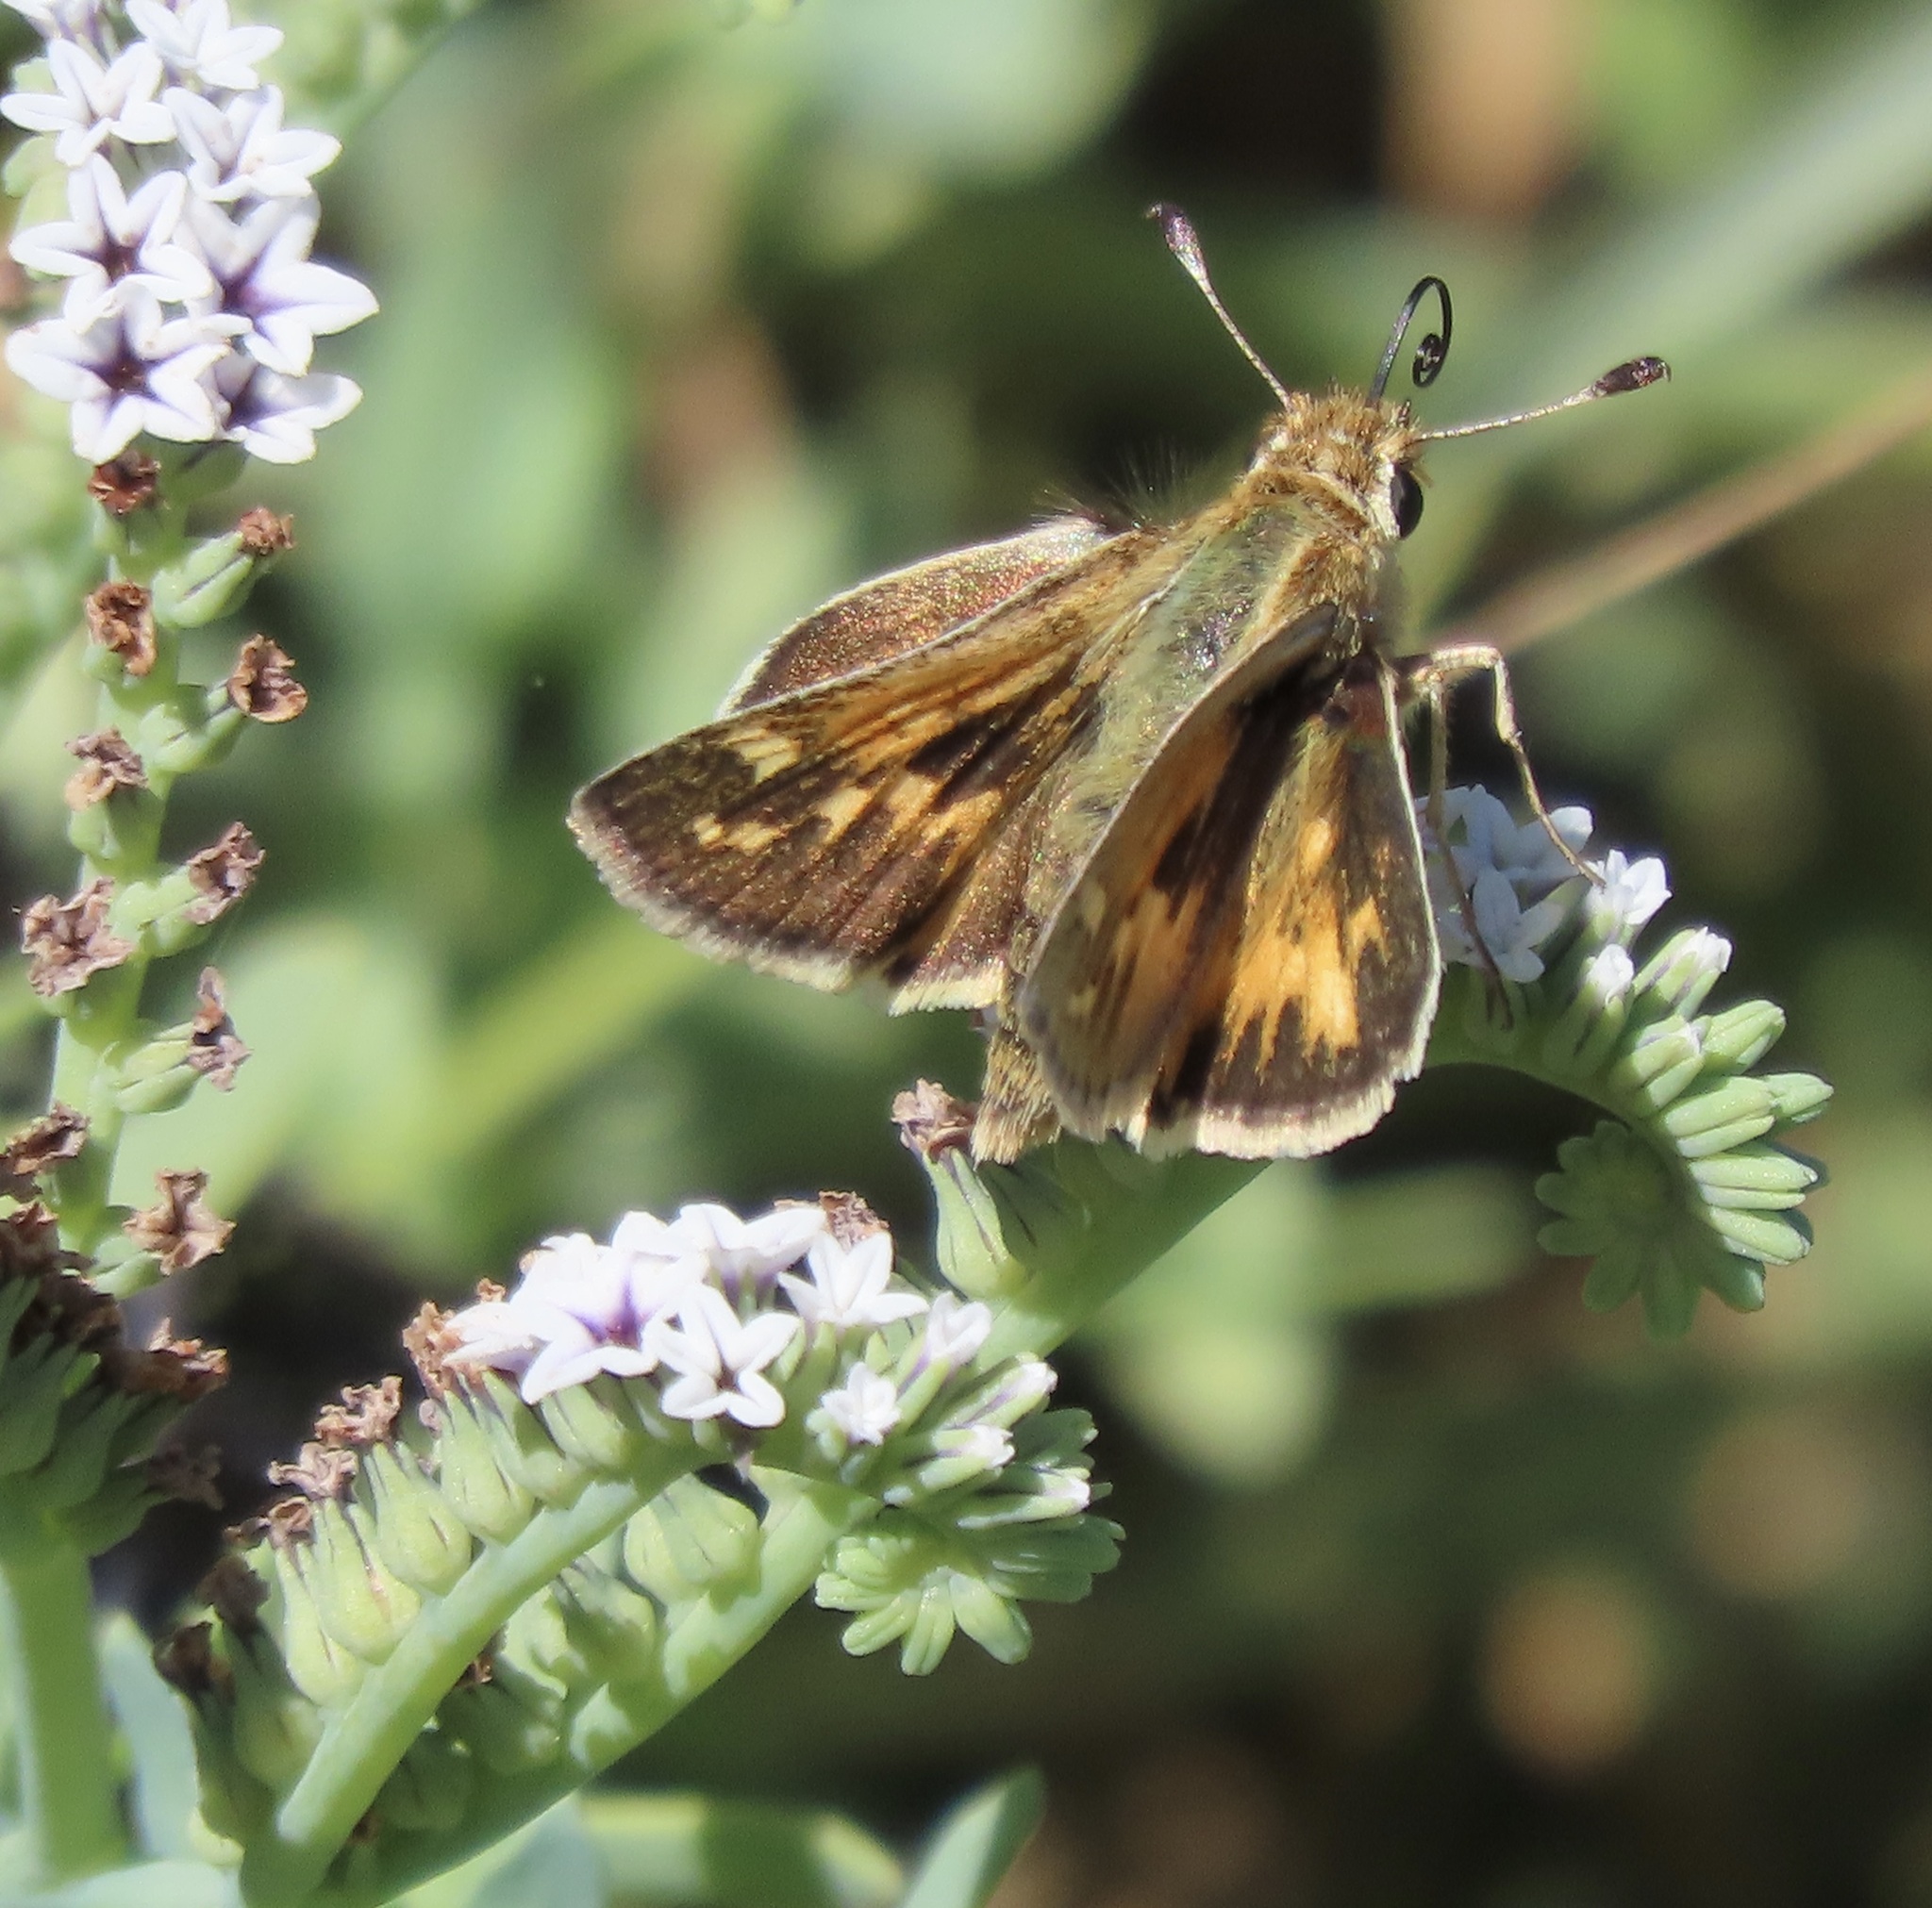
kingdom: Animalia
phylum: Arthropoda
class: Insecta
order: Lepidoptera
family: Hesperiidae
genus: Polites
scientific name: Polites sabuleti
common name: Sandhill skipper
